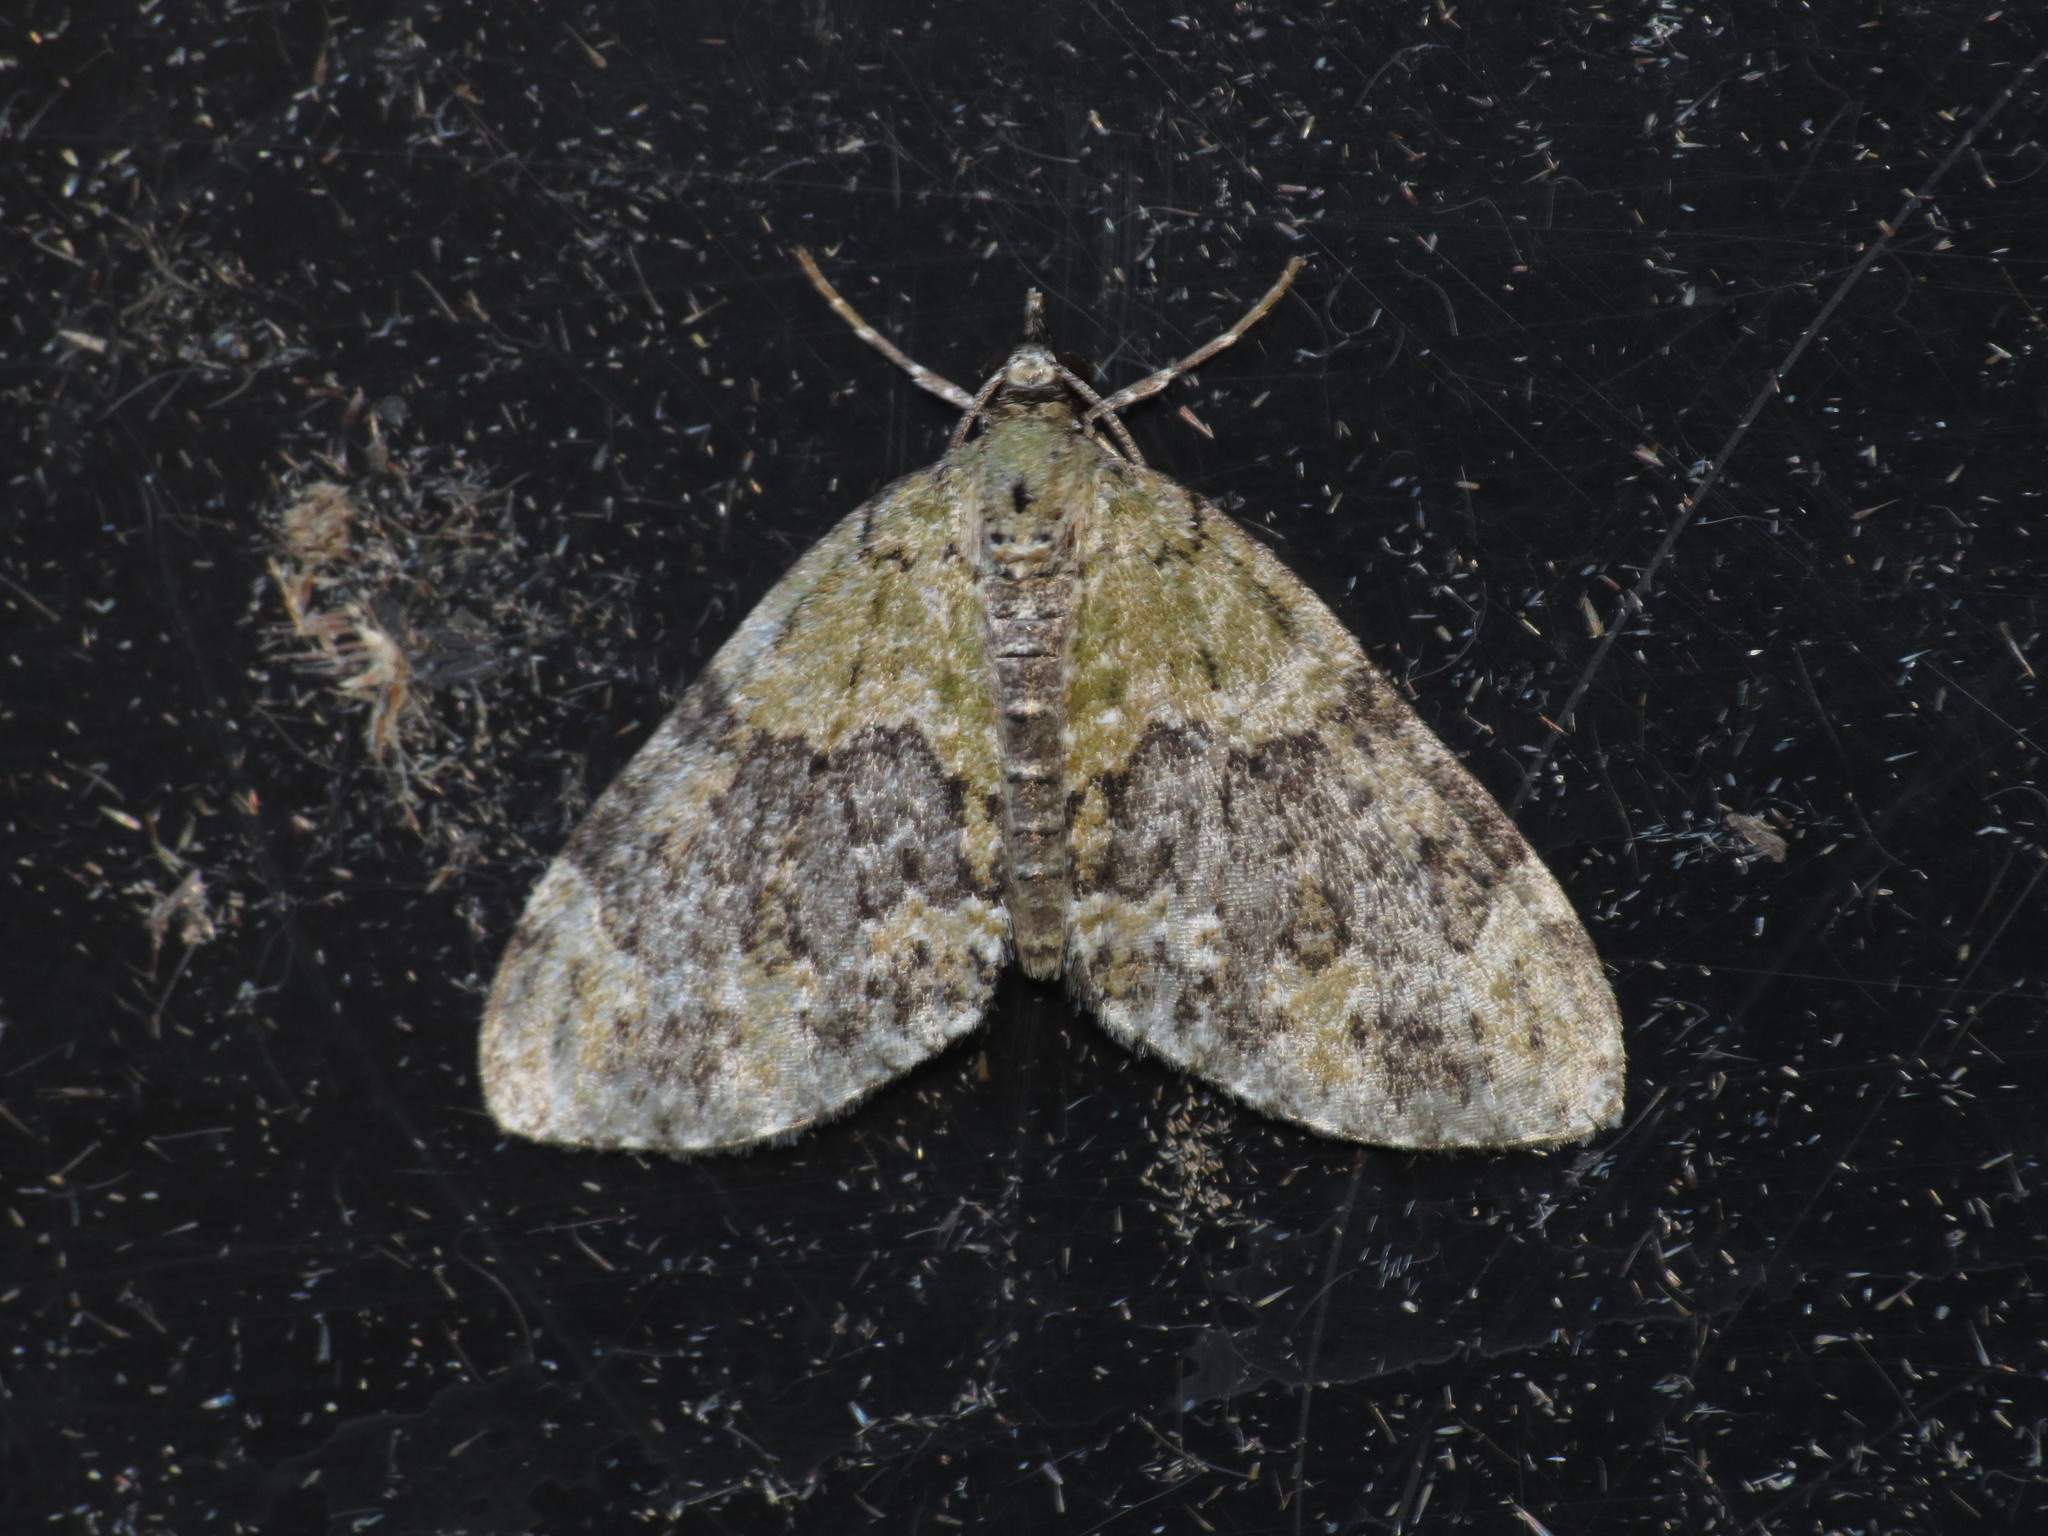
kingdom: Animalia
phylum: Arthropoda
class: Insecta
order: Lepidoptera
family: Geometridae
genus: Acasis
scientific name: Acasis viretata
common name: Yellow-barred brindle
